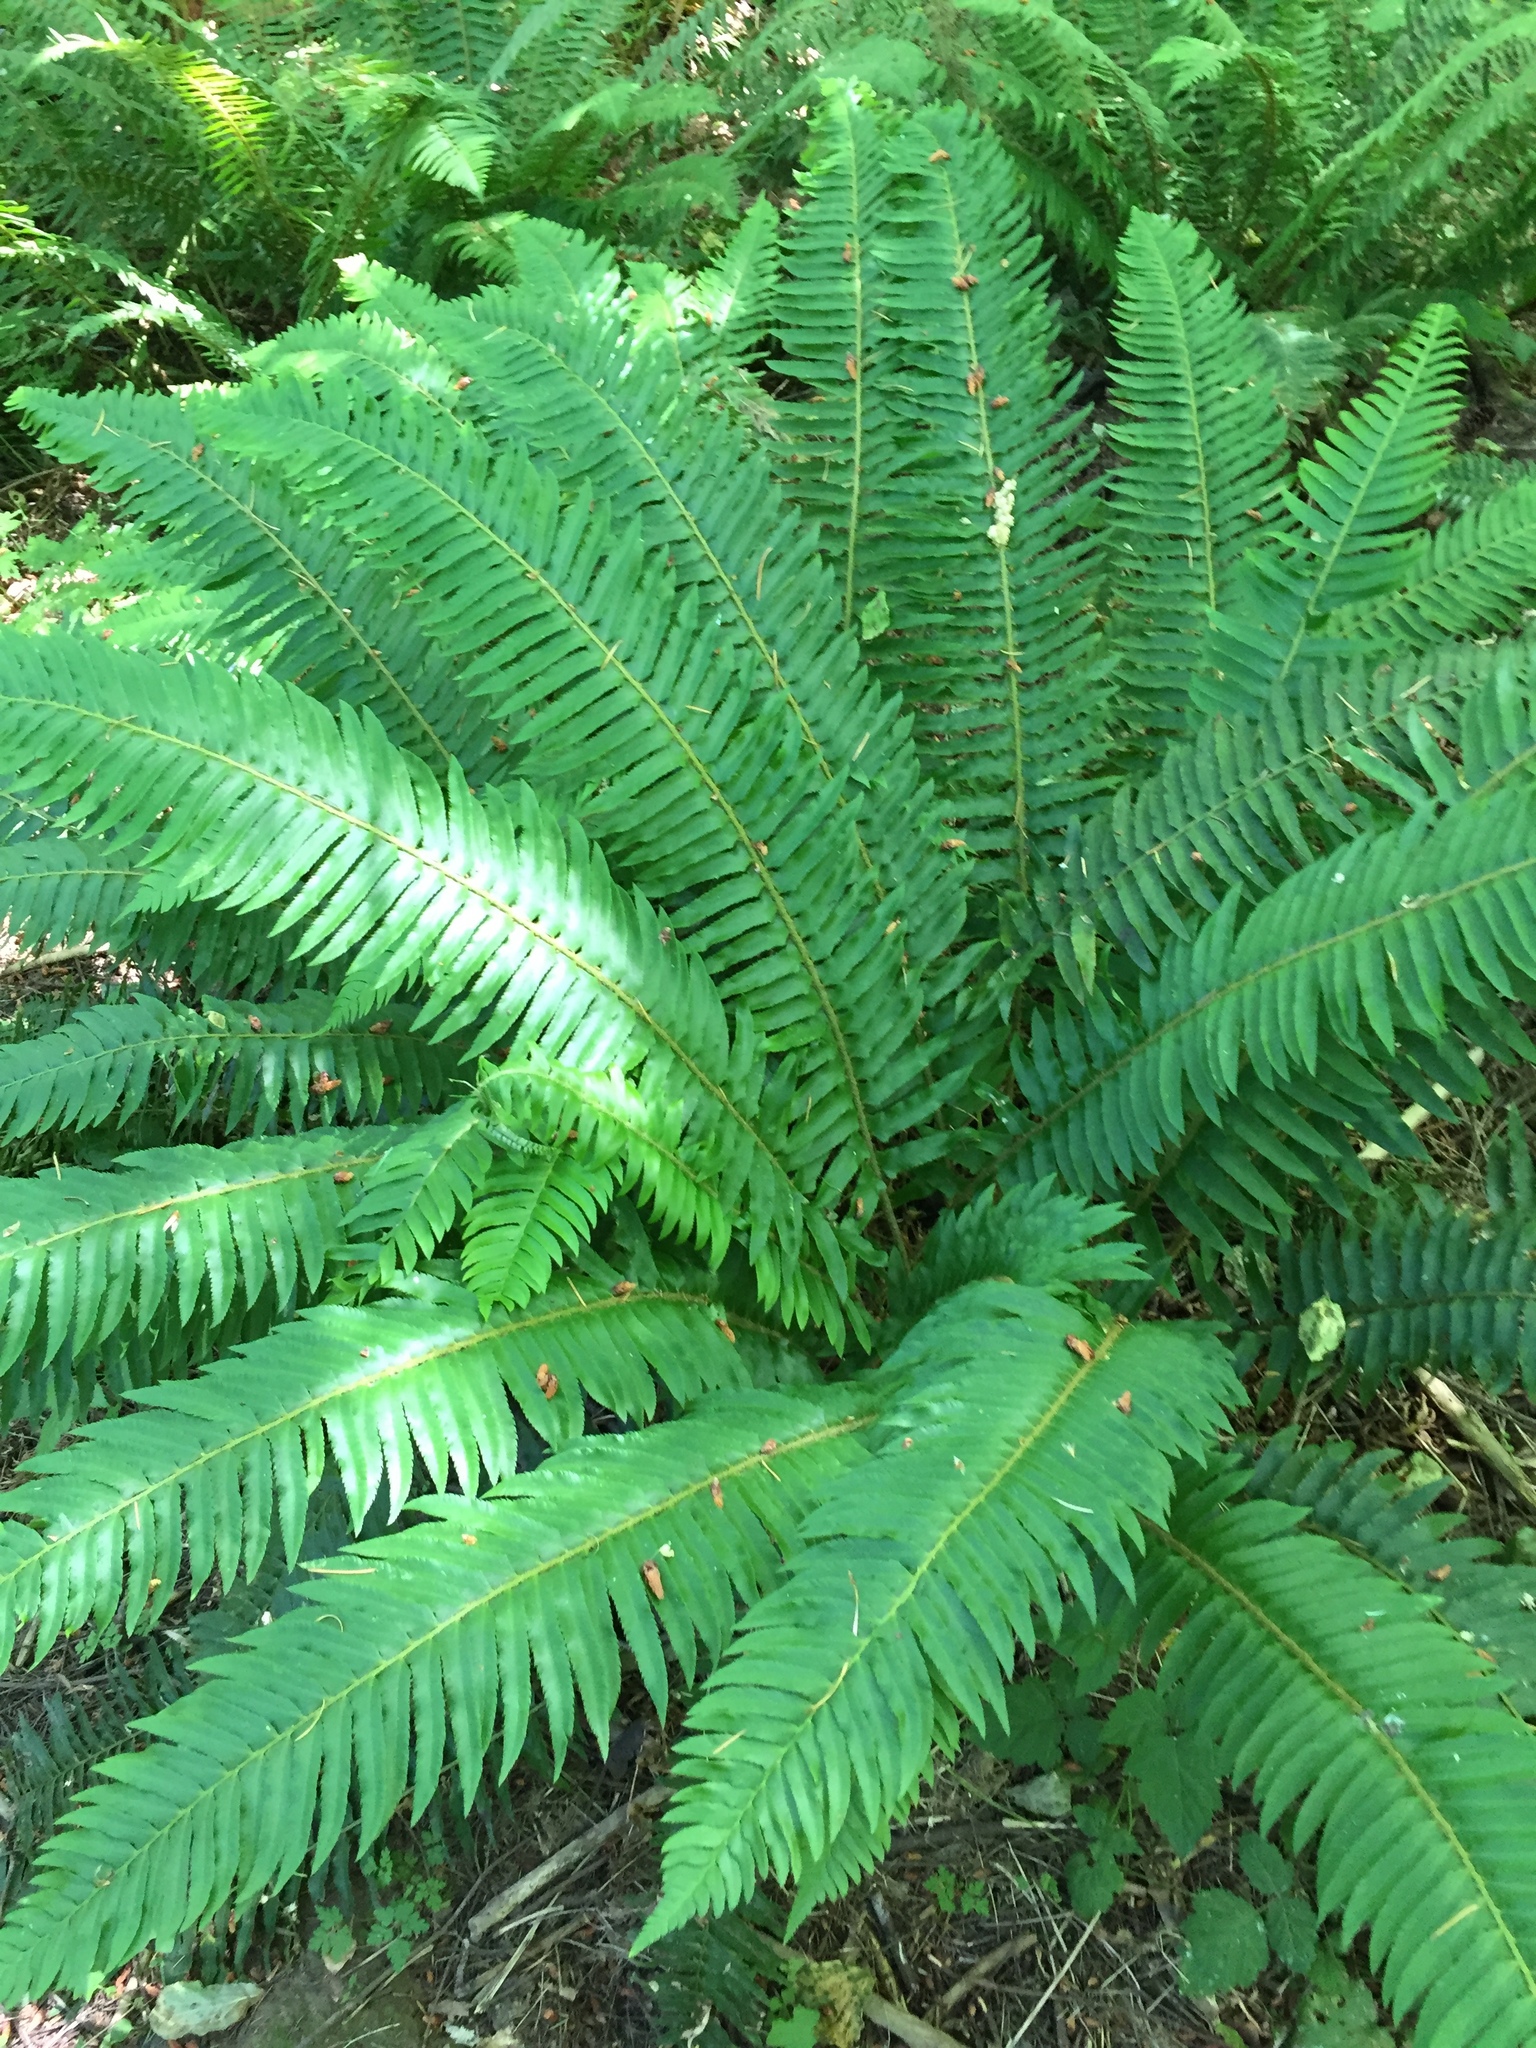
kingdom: Plantae
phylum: Tracheophyta
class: Polypodiopsida
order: Polypodiales
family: Dryopteridaceae
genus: Polystichum
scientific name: Polystichum munitum
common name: Western sword-fern
